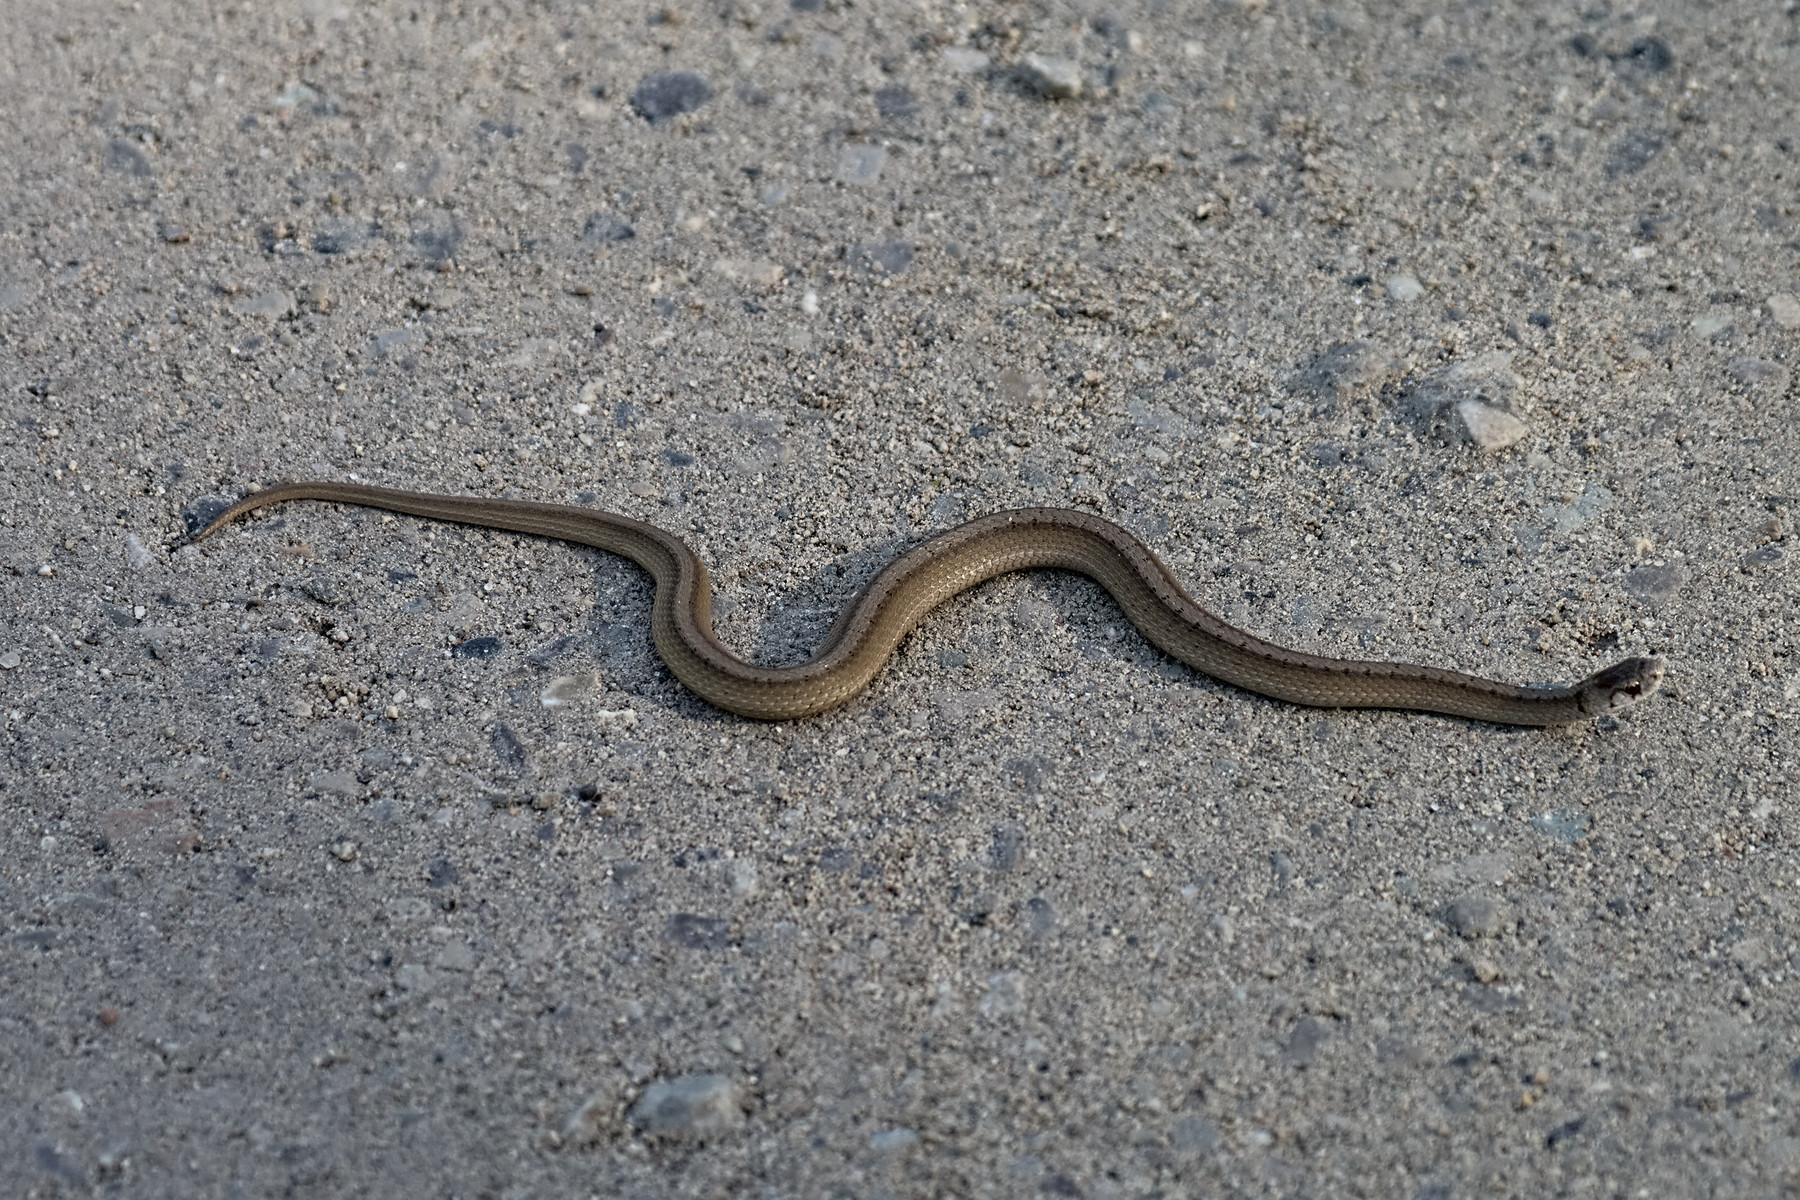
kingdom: Animalia
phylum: Chordata
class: Squamata
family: Colubridae
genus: Storeria
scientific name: Storeria dekayi
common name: (dekay’s) brown snake
